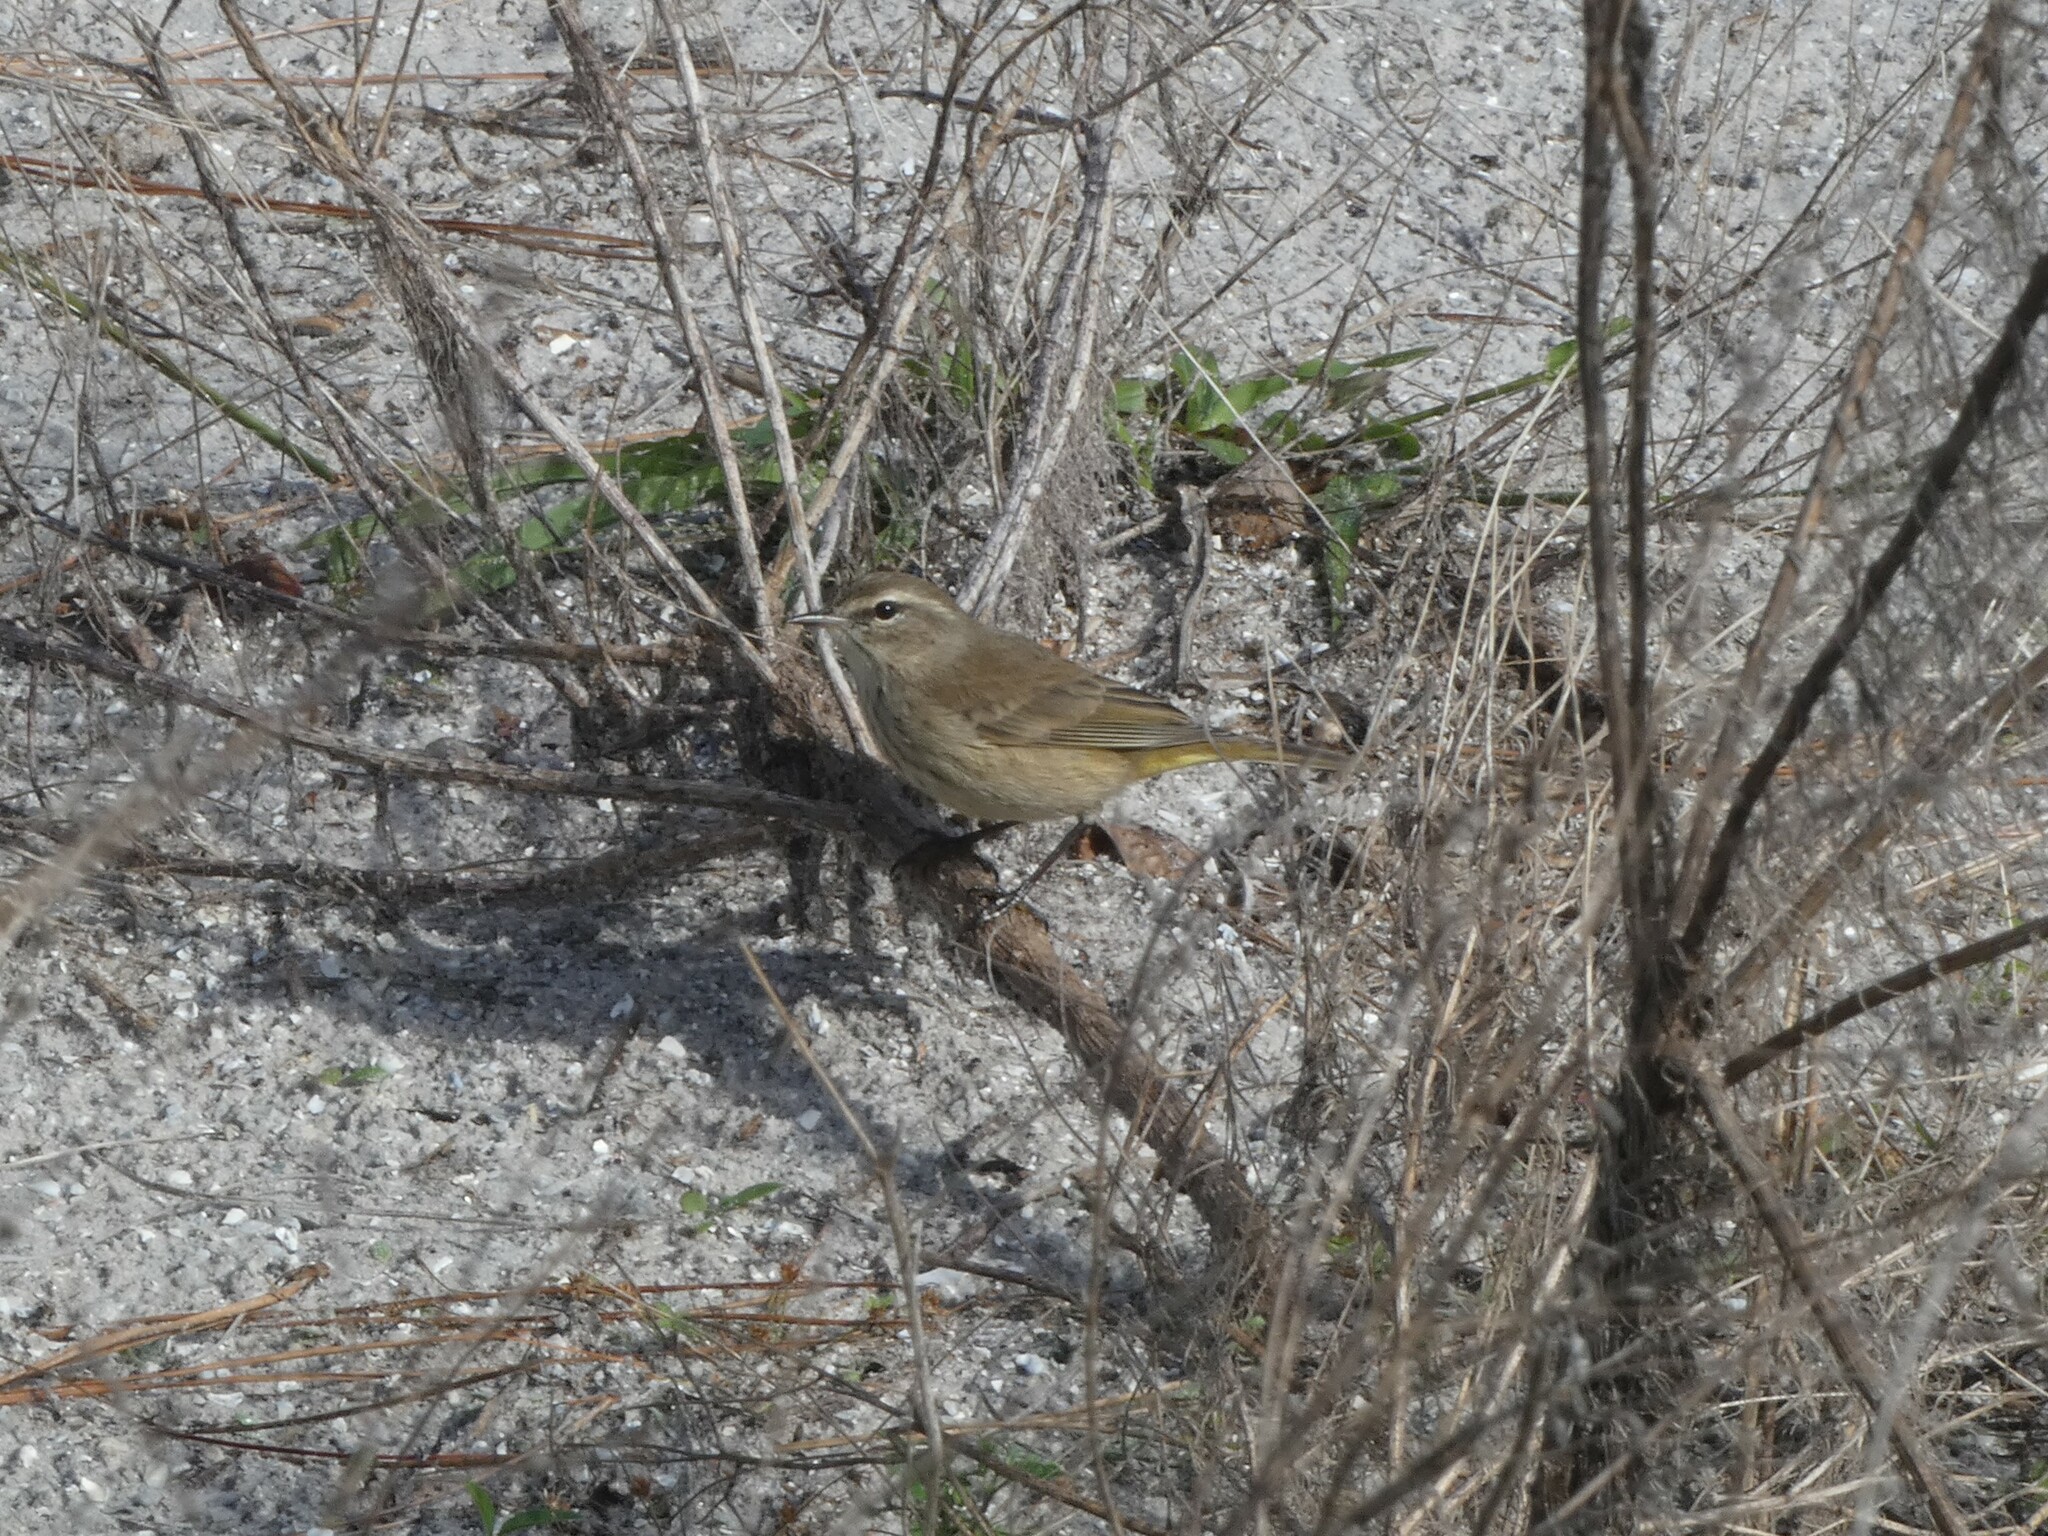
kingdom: Animalia
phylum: Chordata
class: Aves
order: Passeriformes
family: Parulidae
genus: Setophaga
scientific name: Setophaga palmarum
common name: Palm warbler
